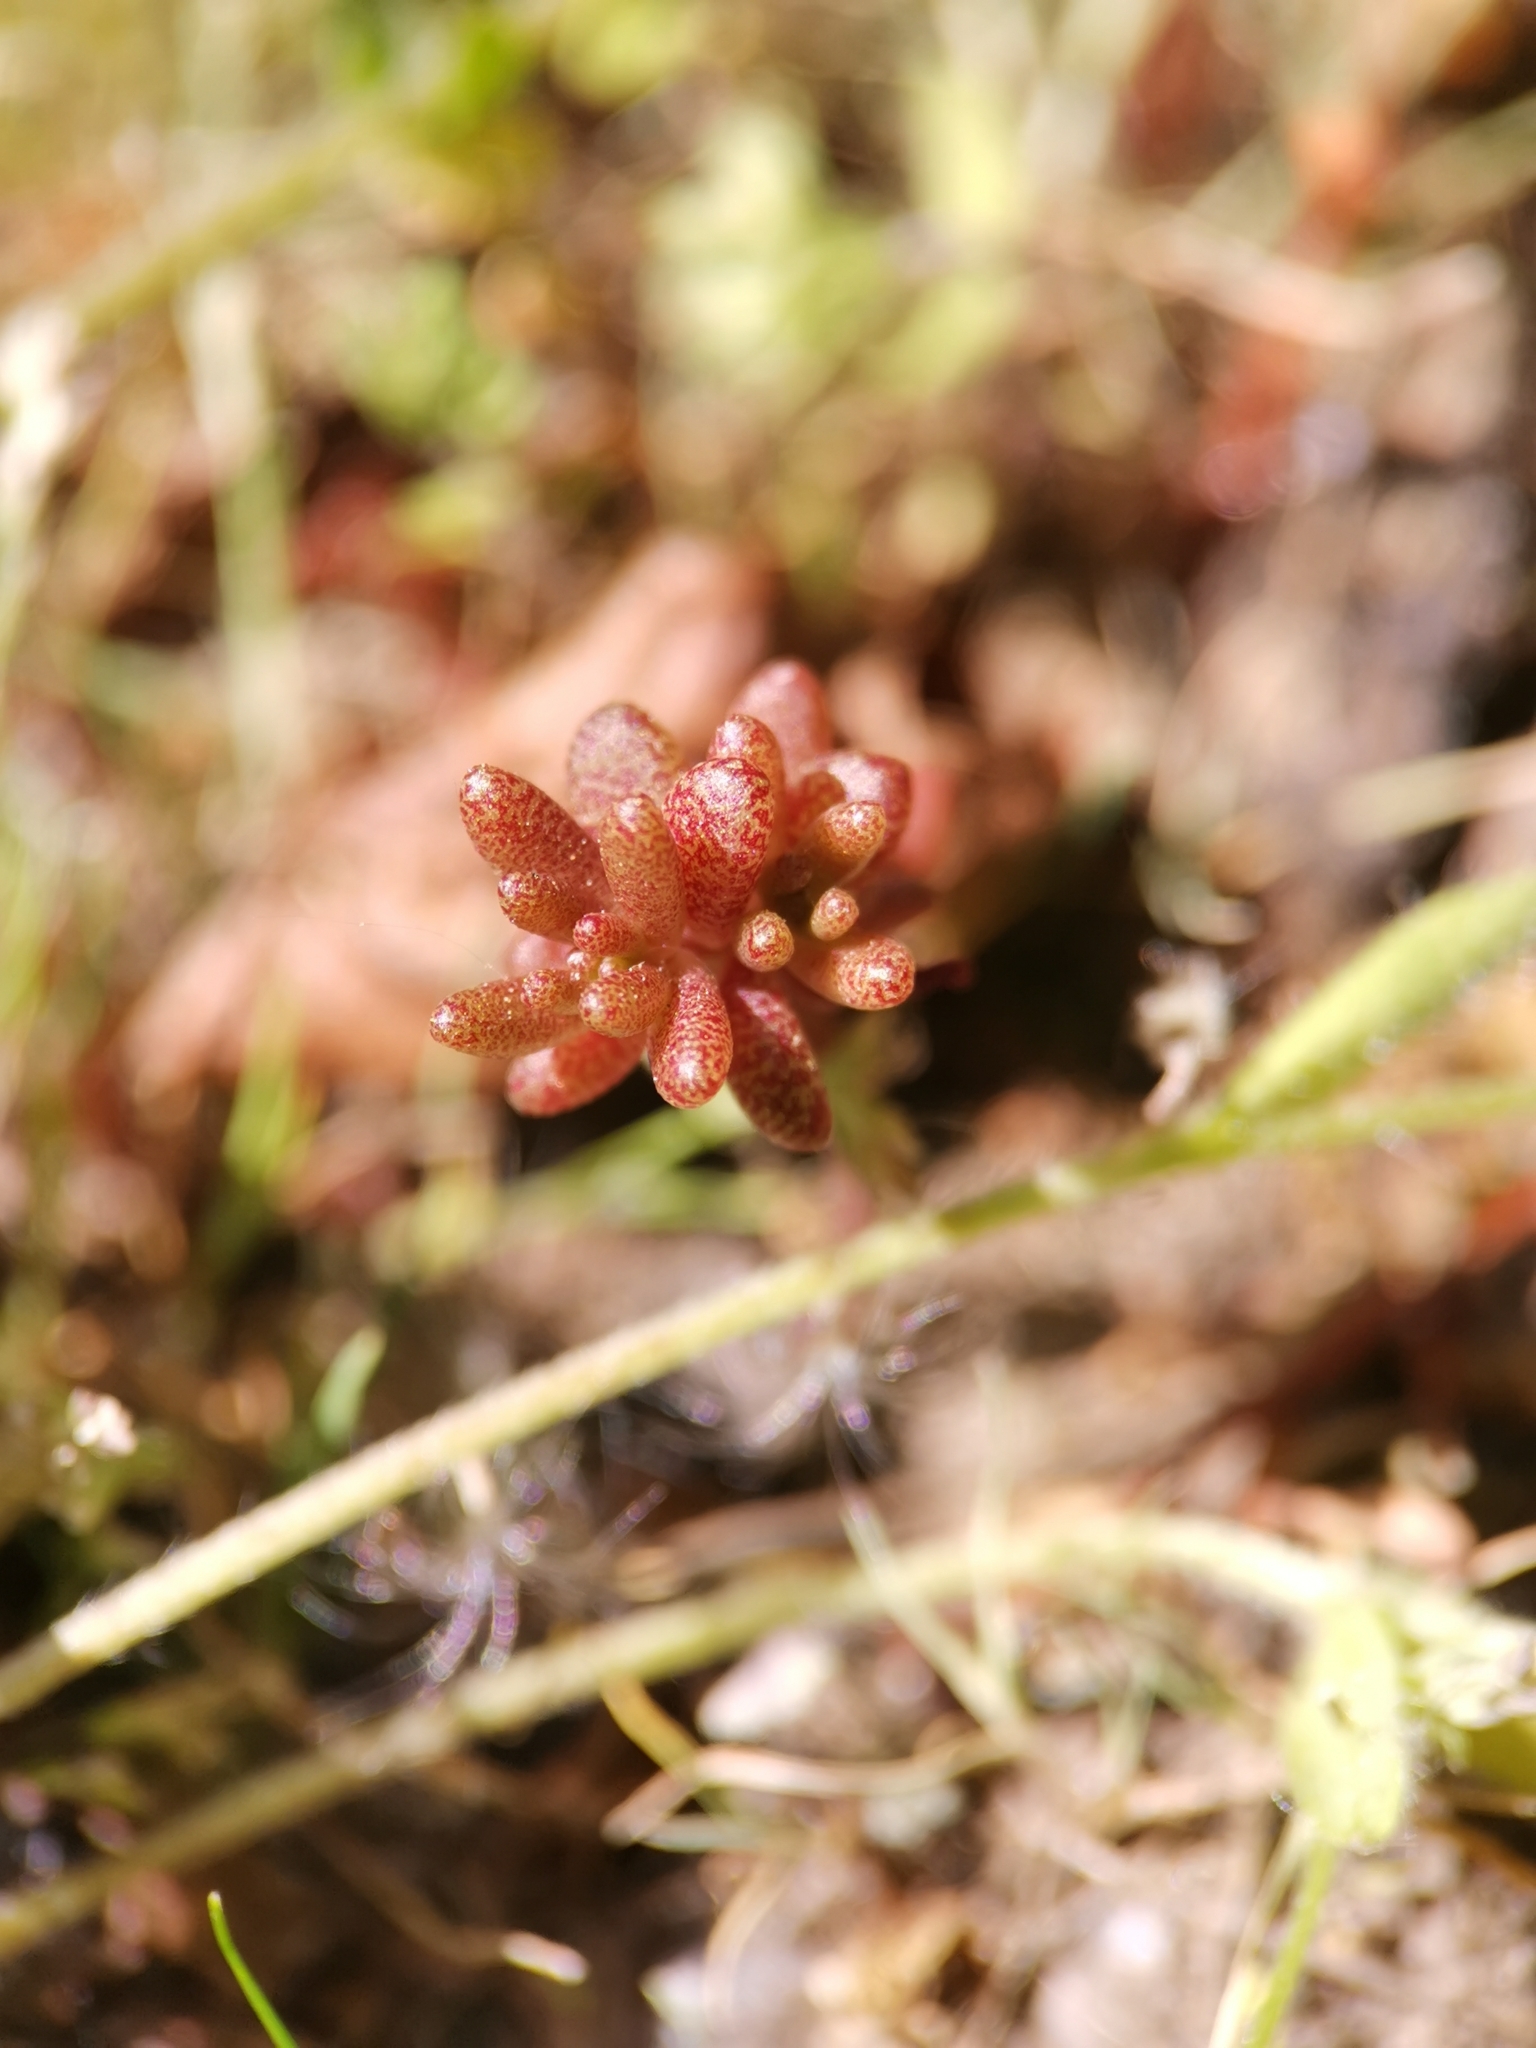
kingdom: Plantae
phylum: Tracheophyta
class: Magnoliopsida
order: Saxifragales
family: Crassulaceae
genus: Sedum
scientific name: Sedum album
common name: White stonecrop
